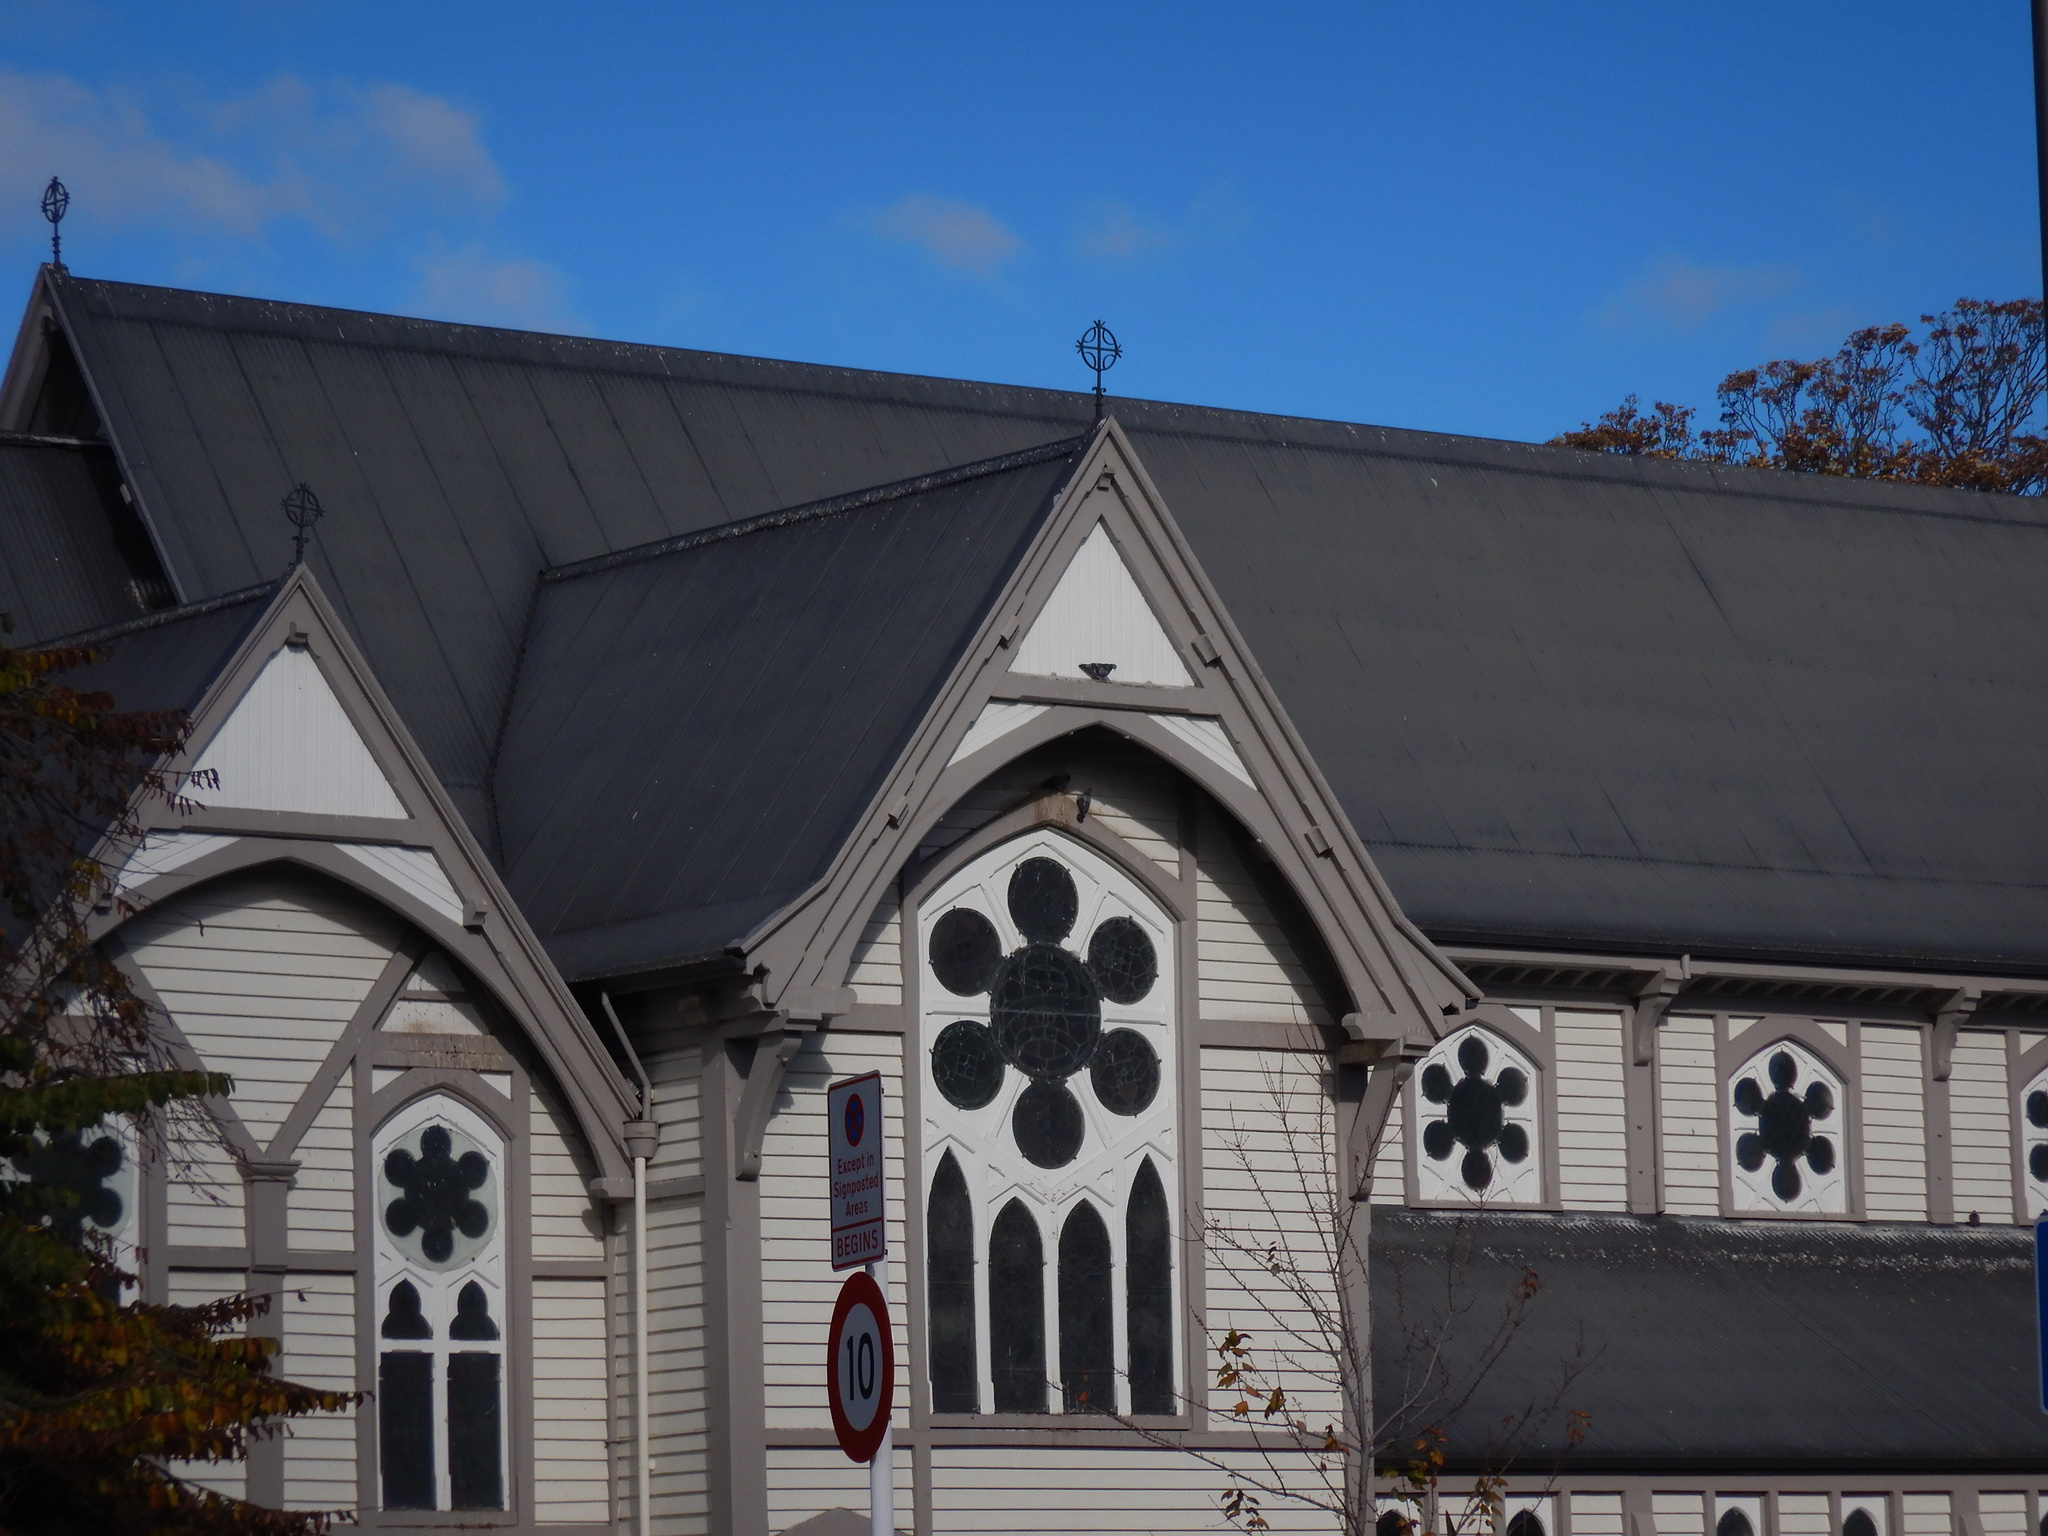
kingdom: Animalia
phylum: Chordata
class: Aves
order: Columbiformes
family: Columbidae
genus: Columba
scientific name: Columba livia
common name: Rock pigeon
